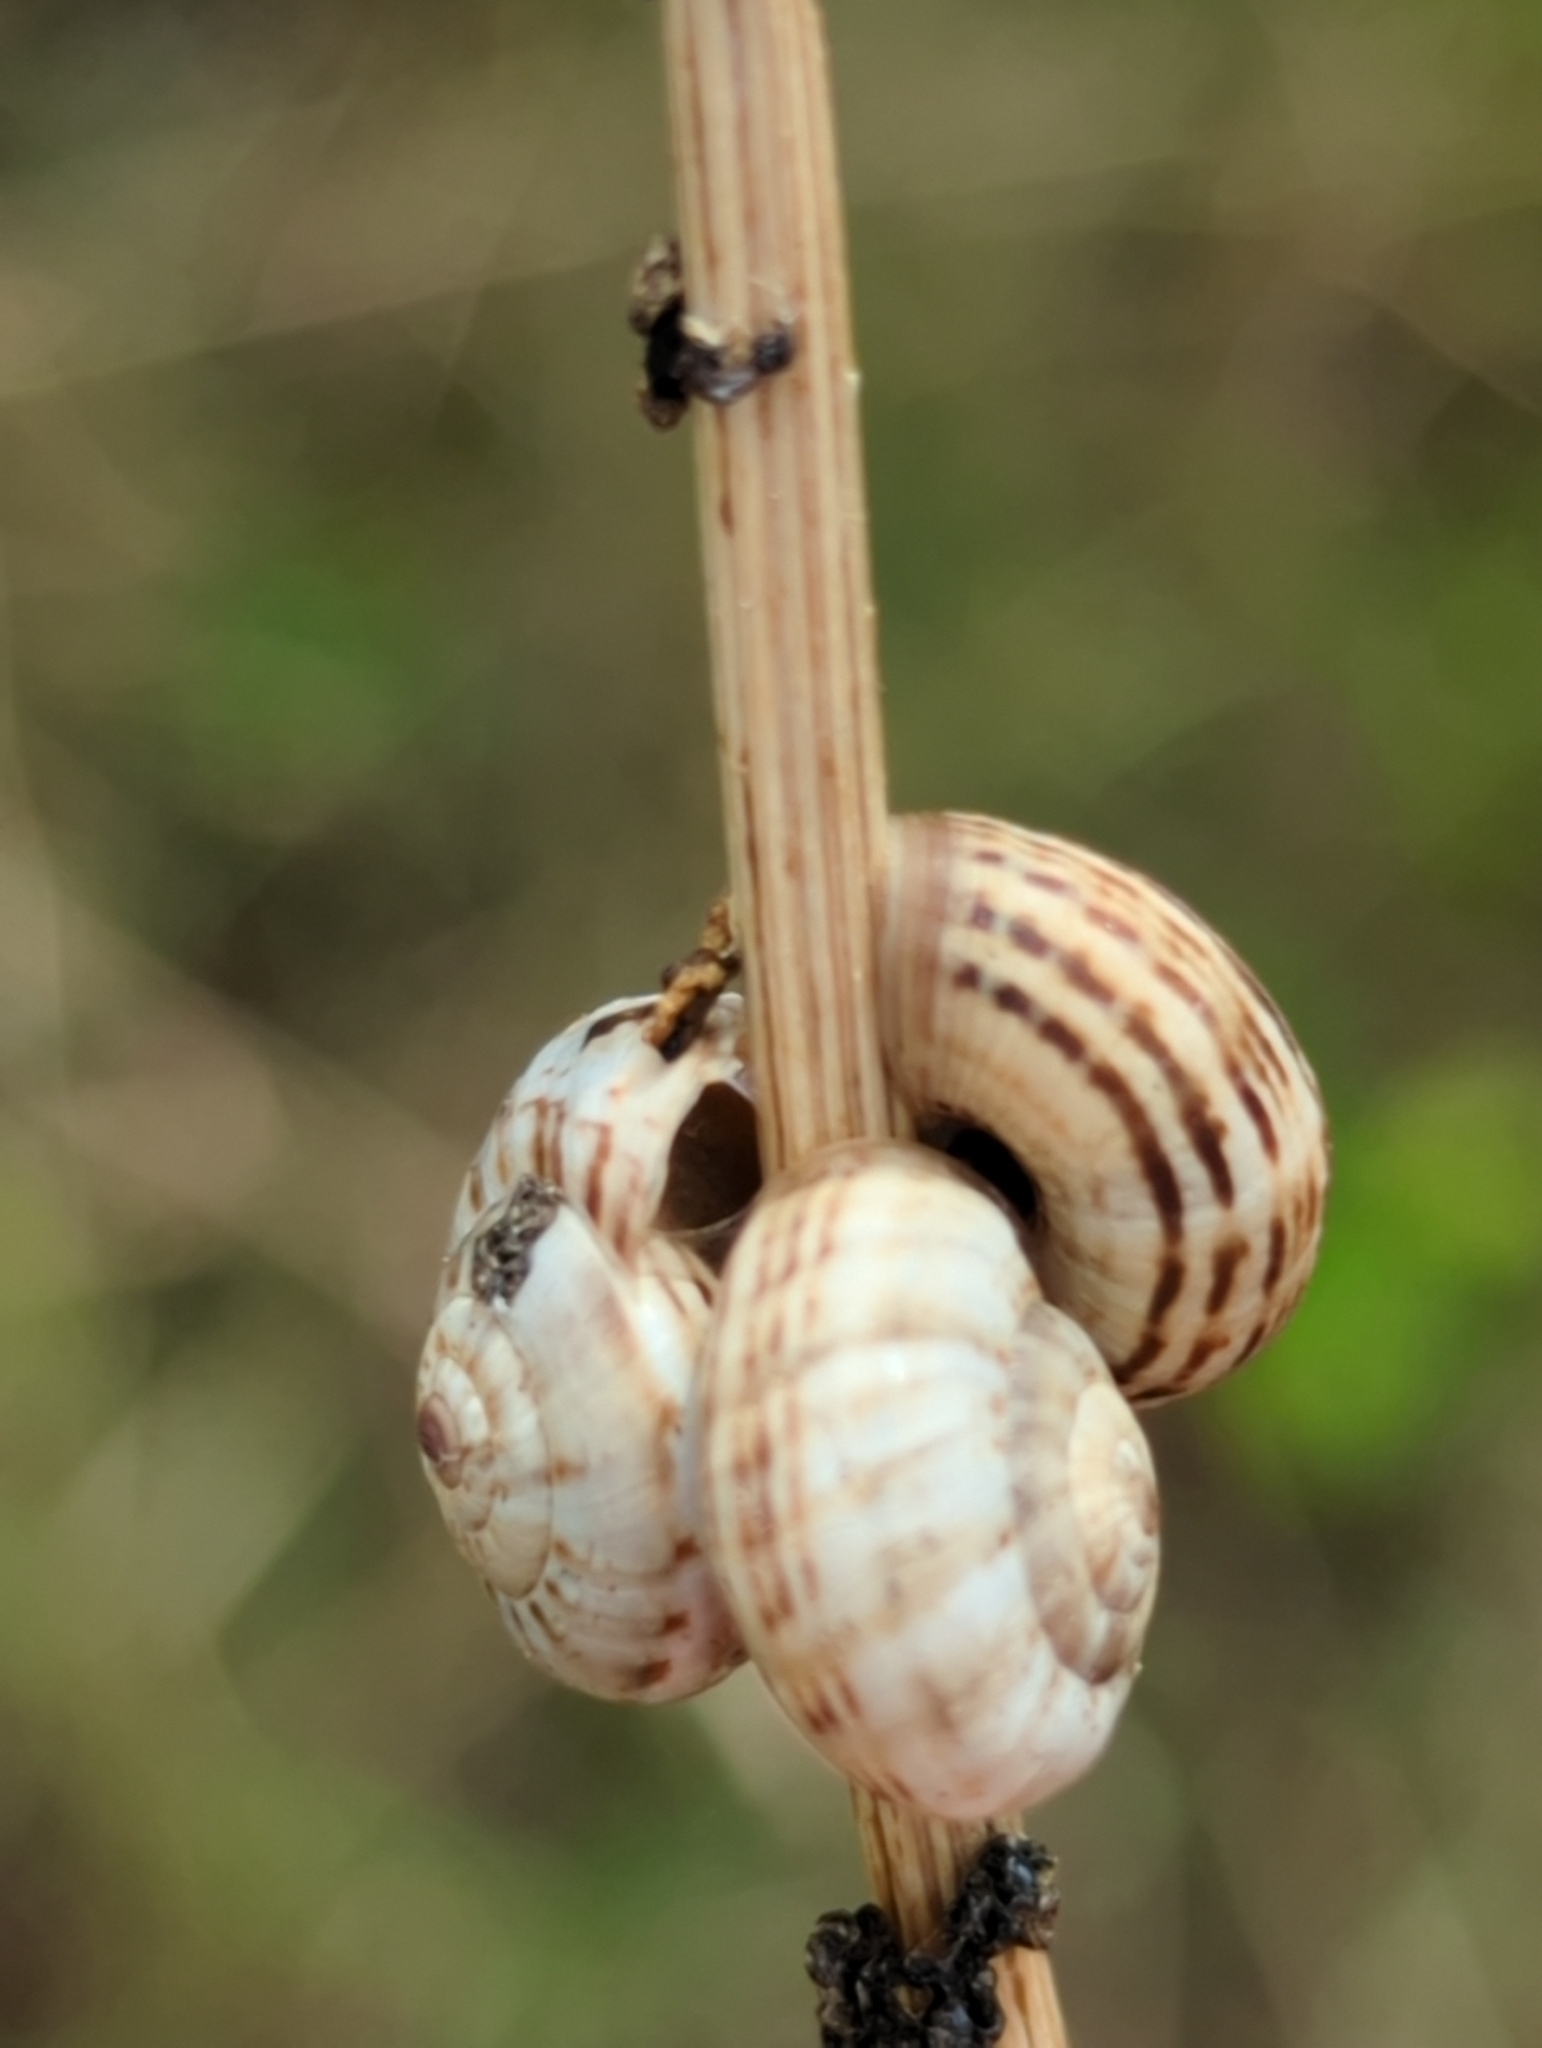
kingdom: Animalia
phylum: Mollusca
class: Gastropoda
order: Stylommatophora
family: Geomitridae
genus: Xeropicta
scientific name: Xeropicta krynickii
